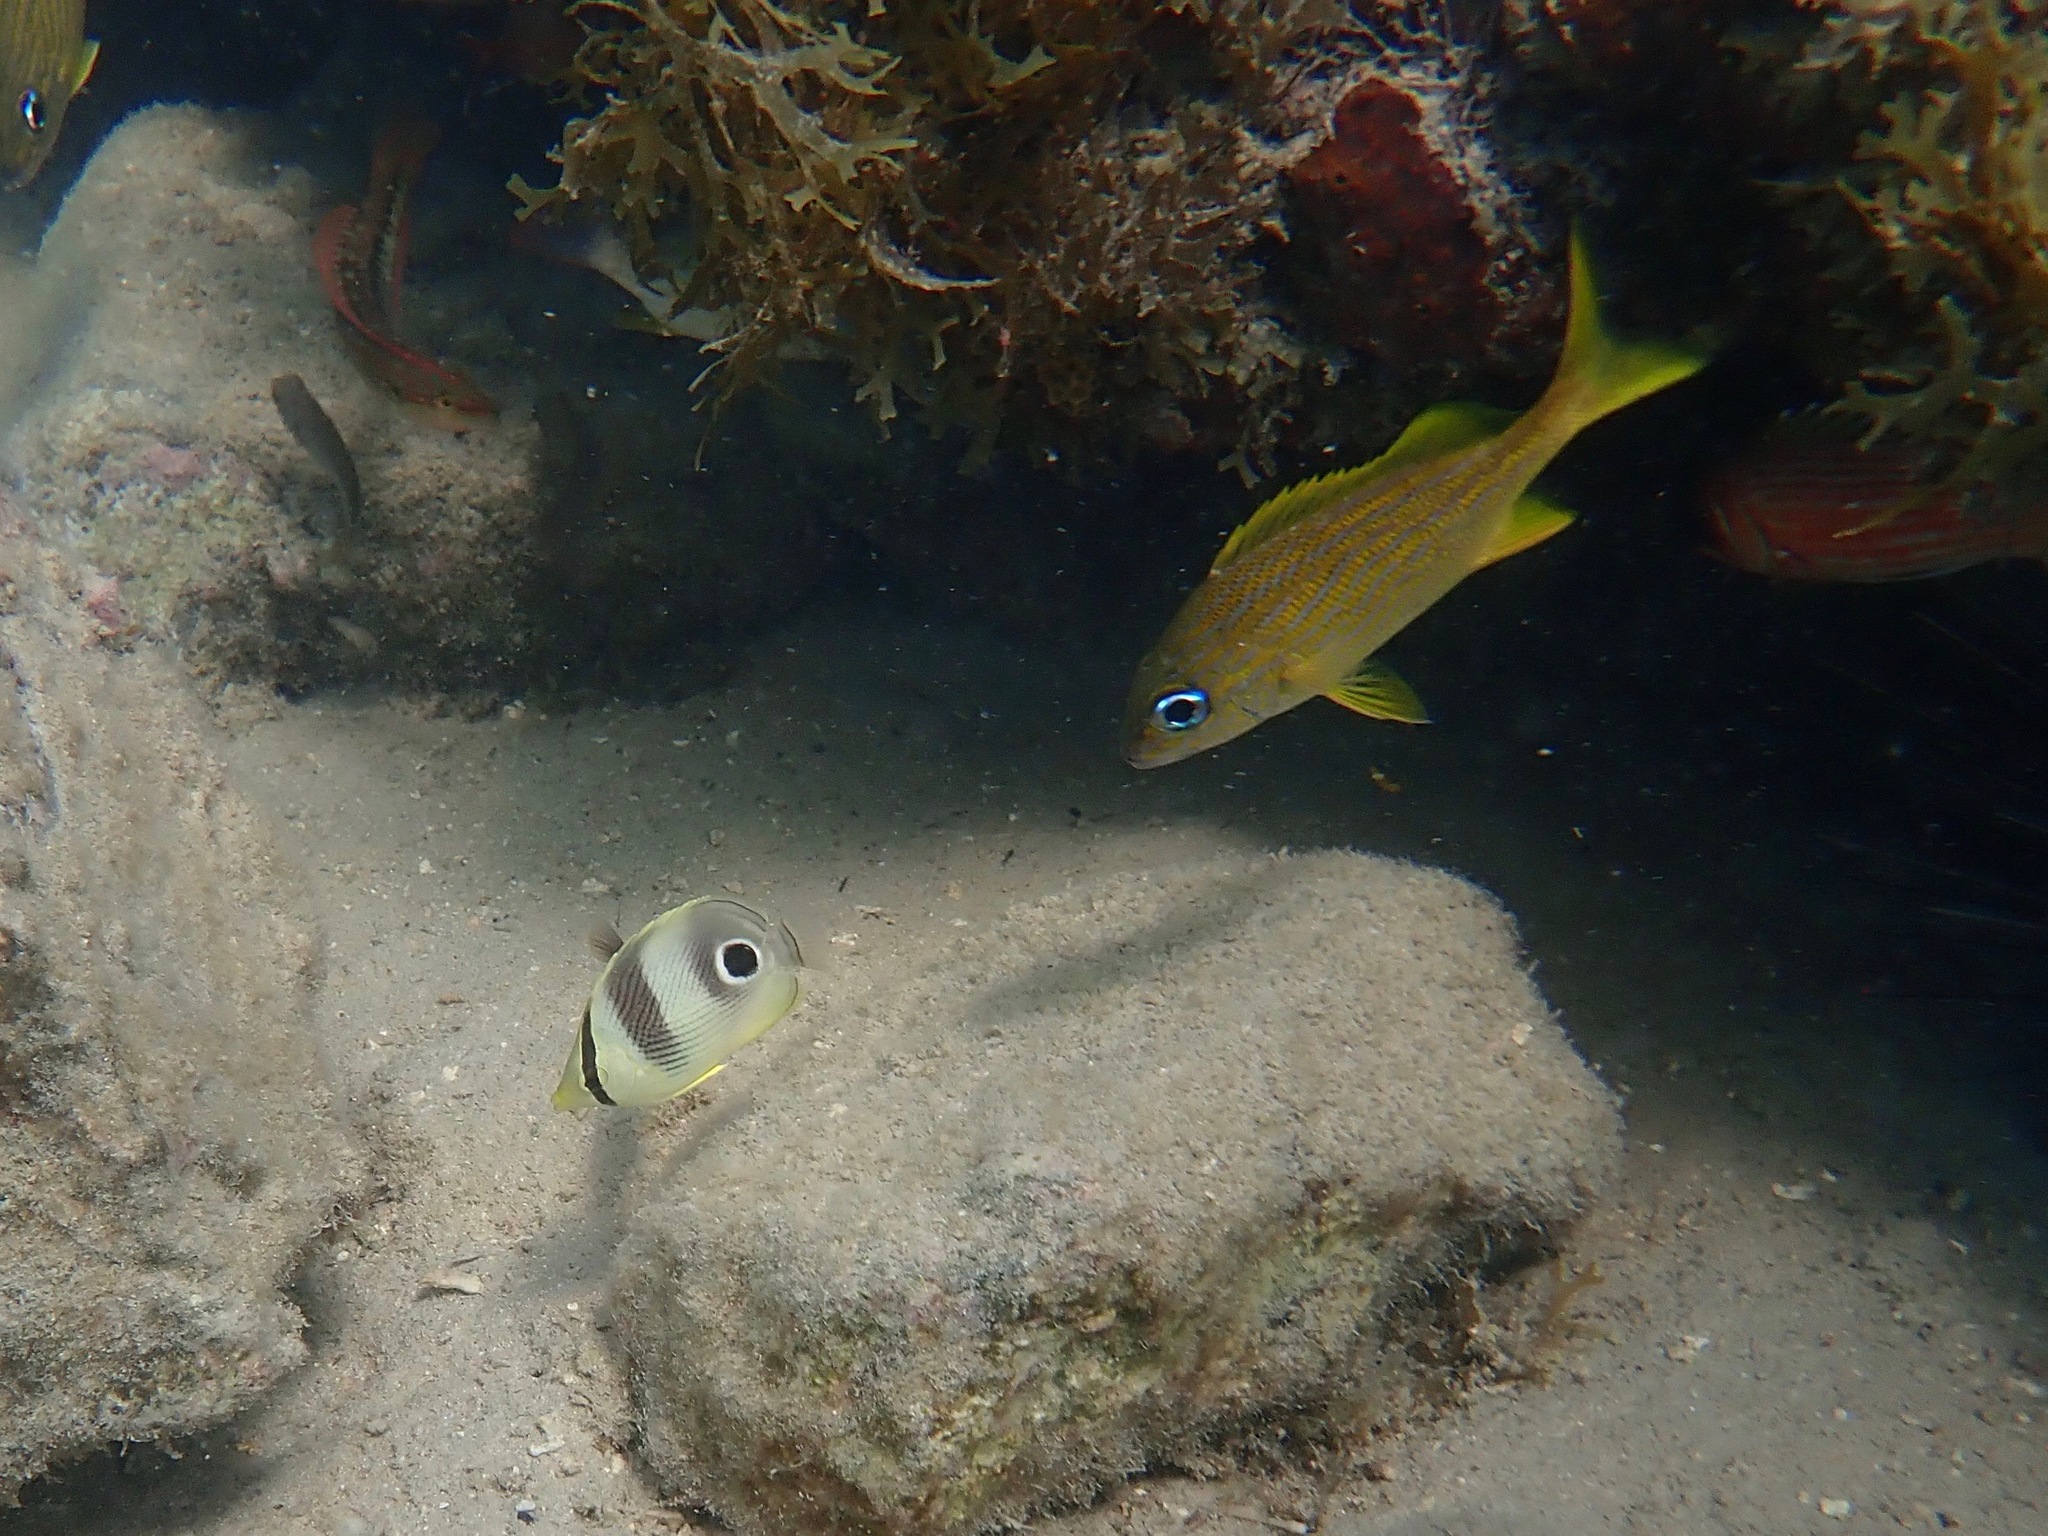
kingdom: Animalia
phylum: Chordata
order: Perciformes
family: Haemulidae
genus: Haemulon
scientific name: Haemulon flavolineatum
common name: French grunt
